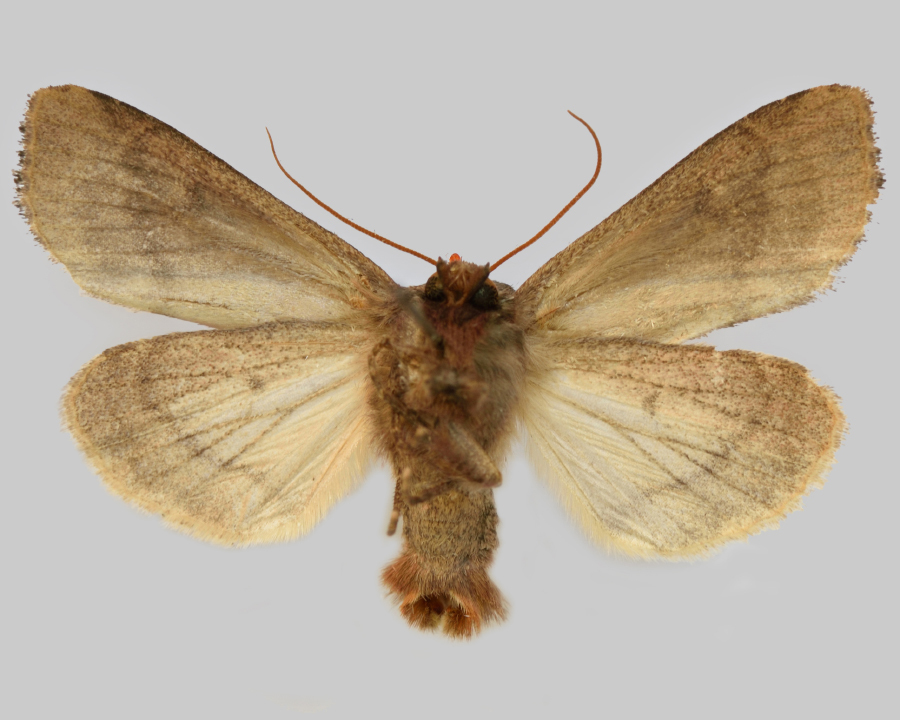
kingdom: Animalia
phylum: Arthropoda
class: Insecta
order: Lepidoptera
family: Noctuidae
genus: Resapamea
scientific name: Resapamea hedeni
